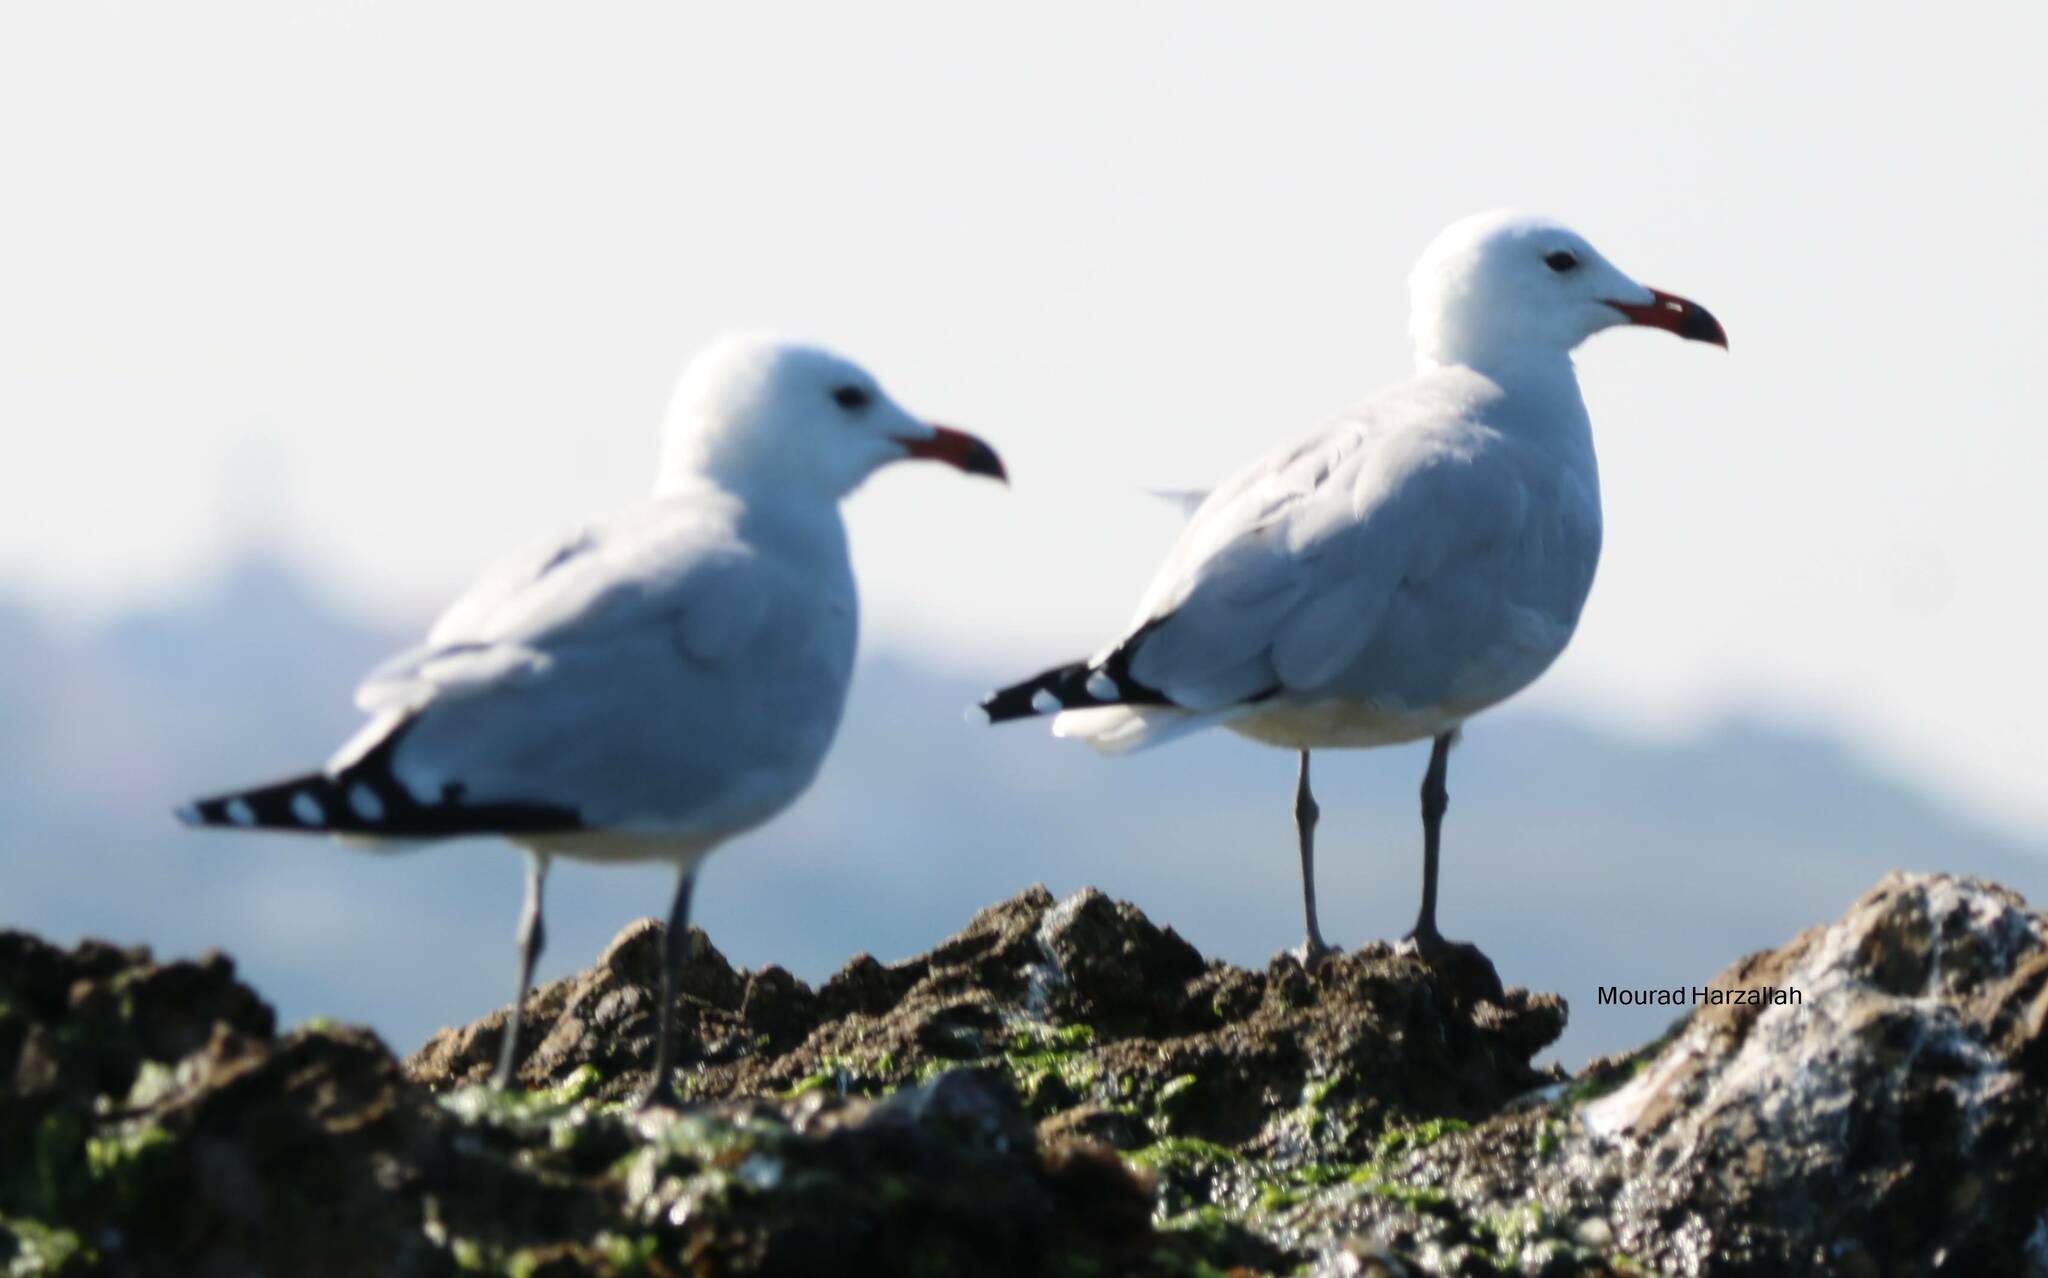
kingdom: Animalia
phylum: Chordata
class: Aves
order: Charadriiformes
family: Laridae
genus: Ichthyaetus
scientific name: Ichthyaetus audouinii
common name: Audouin's gull
